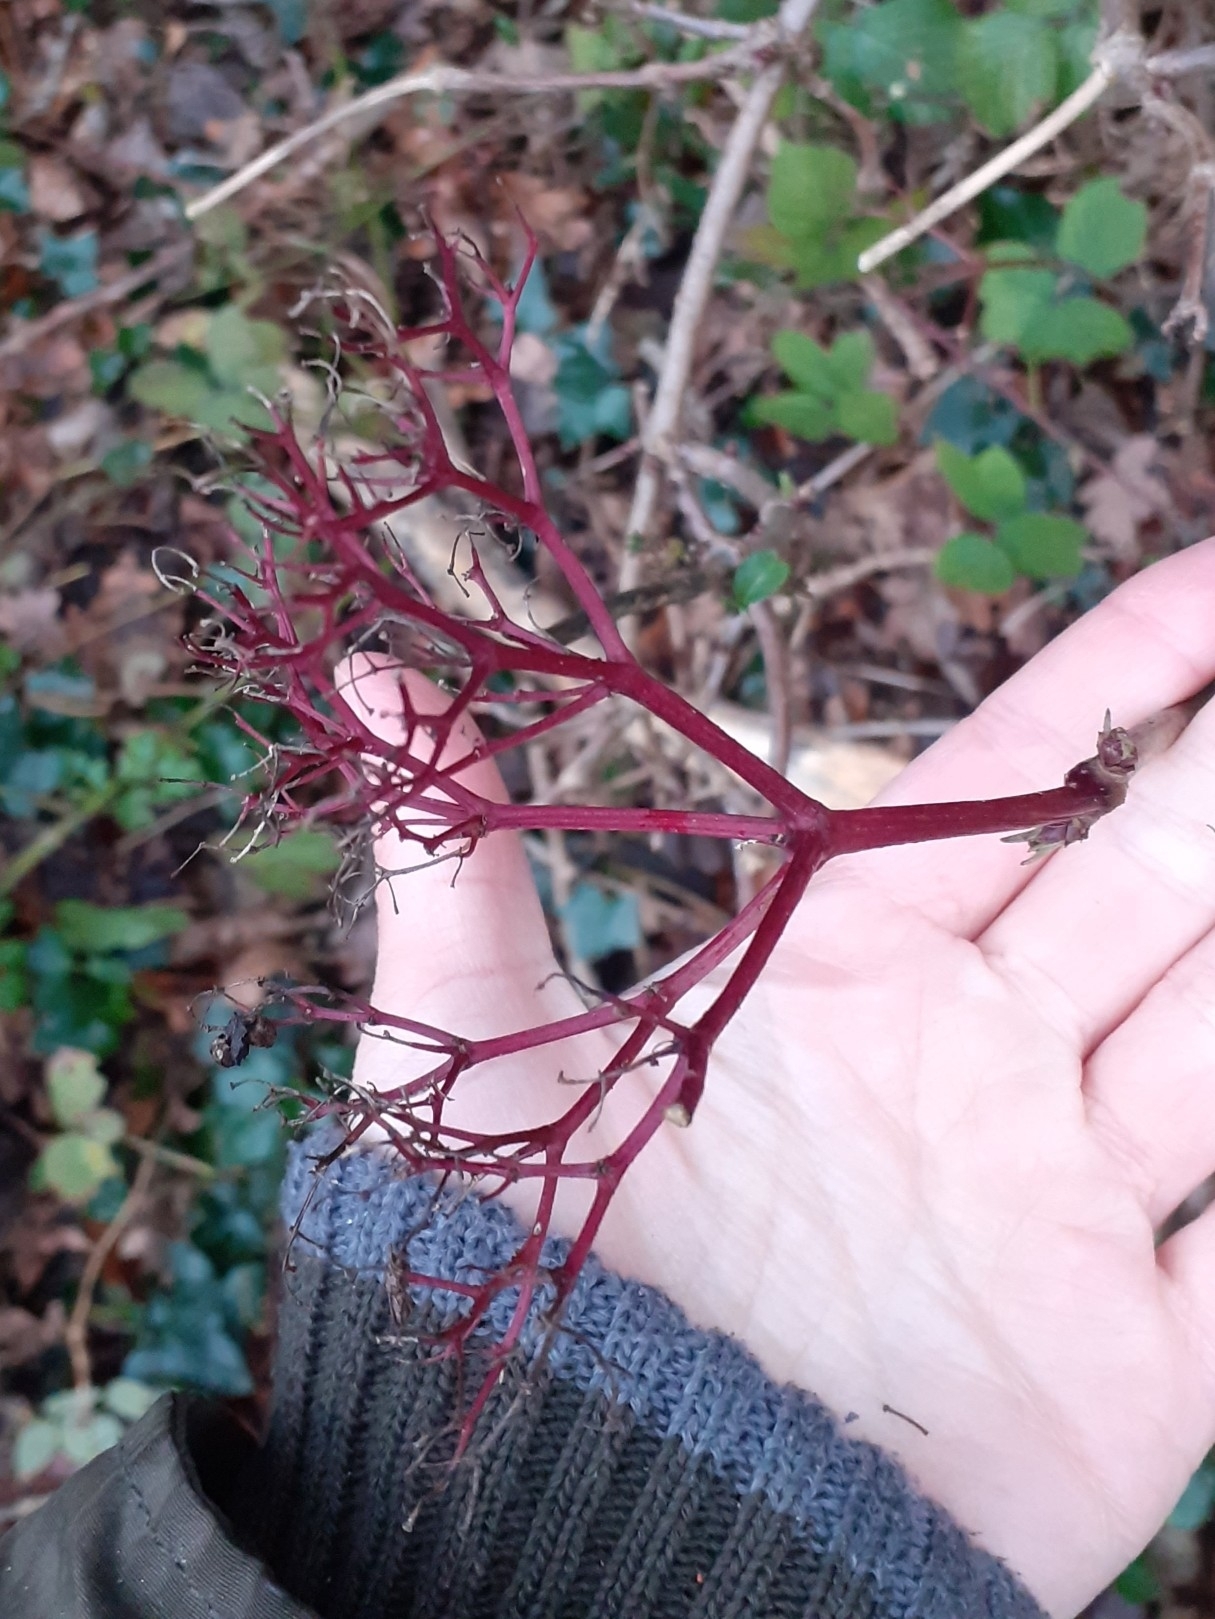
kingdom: Plantae
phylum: Tracheophyta
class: Magnoliopsida
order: Dipsacales
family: Viburnaceae
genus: Sambucus
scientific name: Sambucus nigra
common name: Elder
